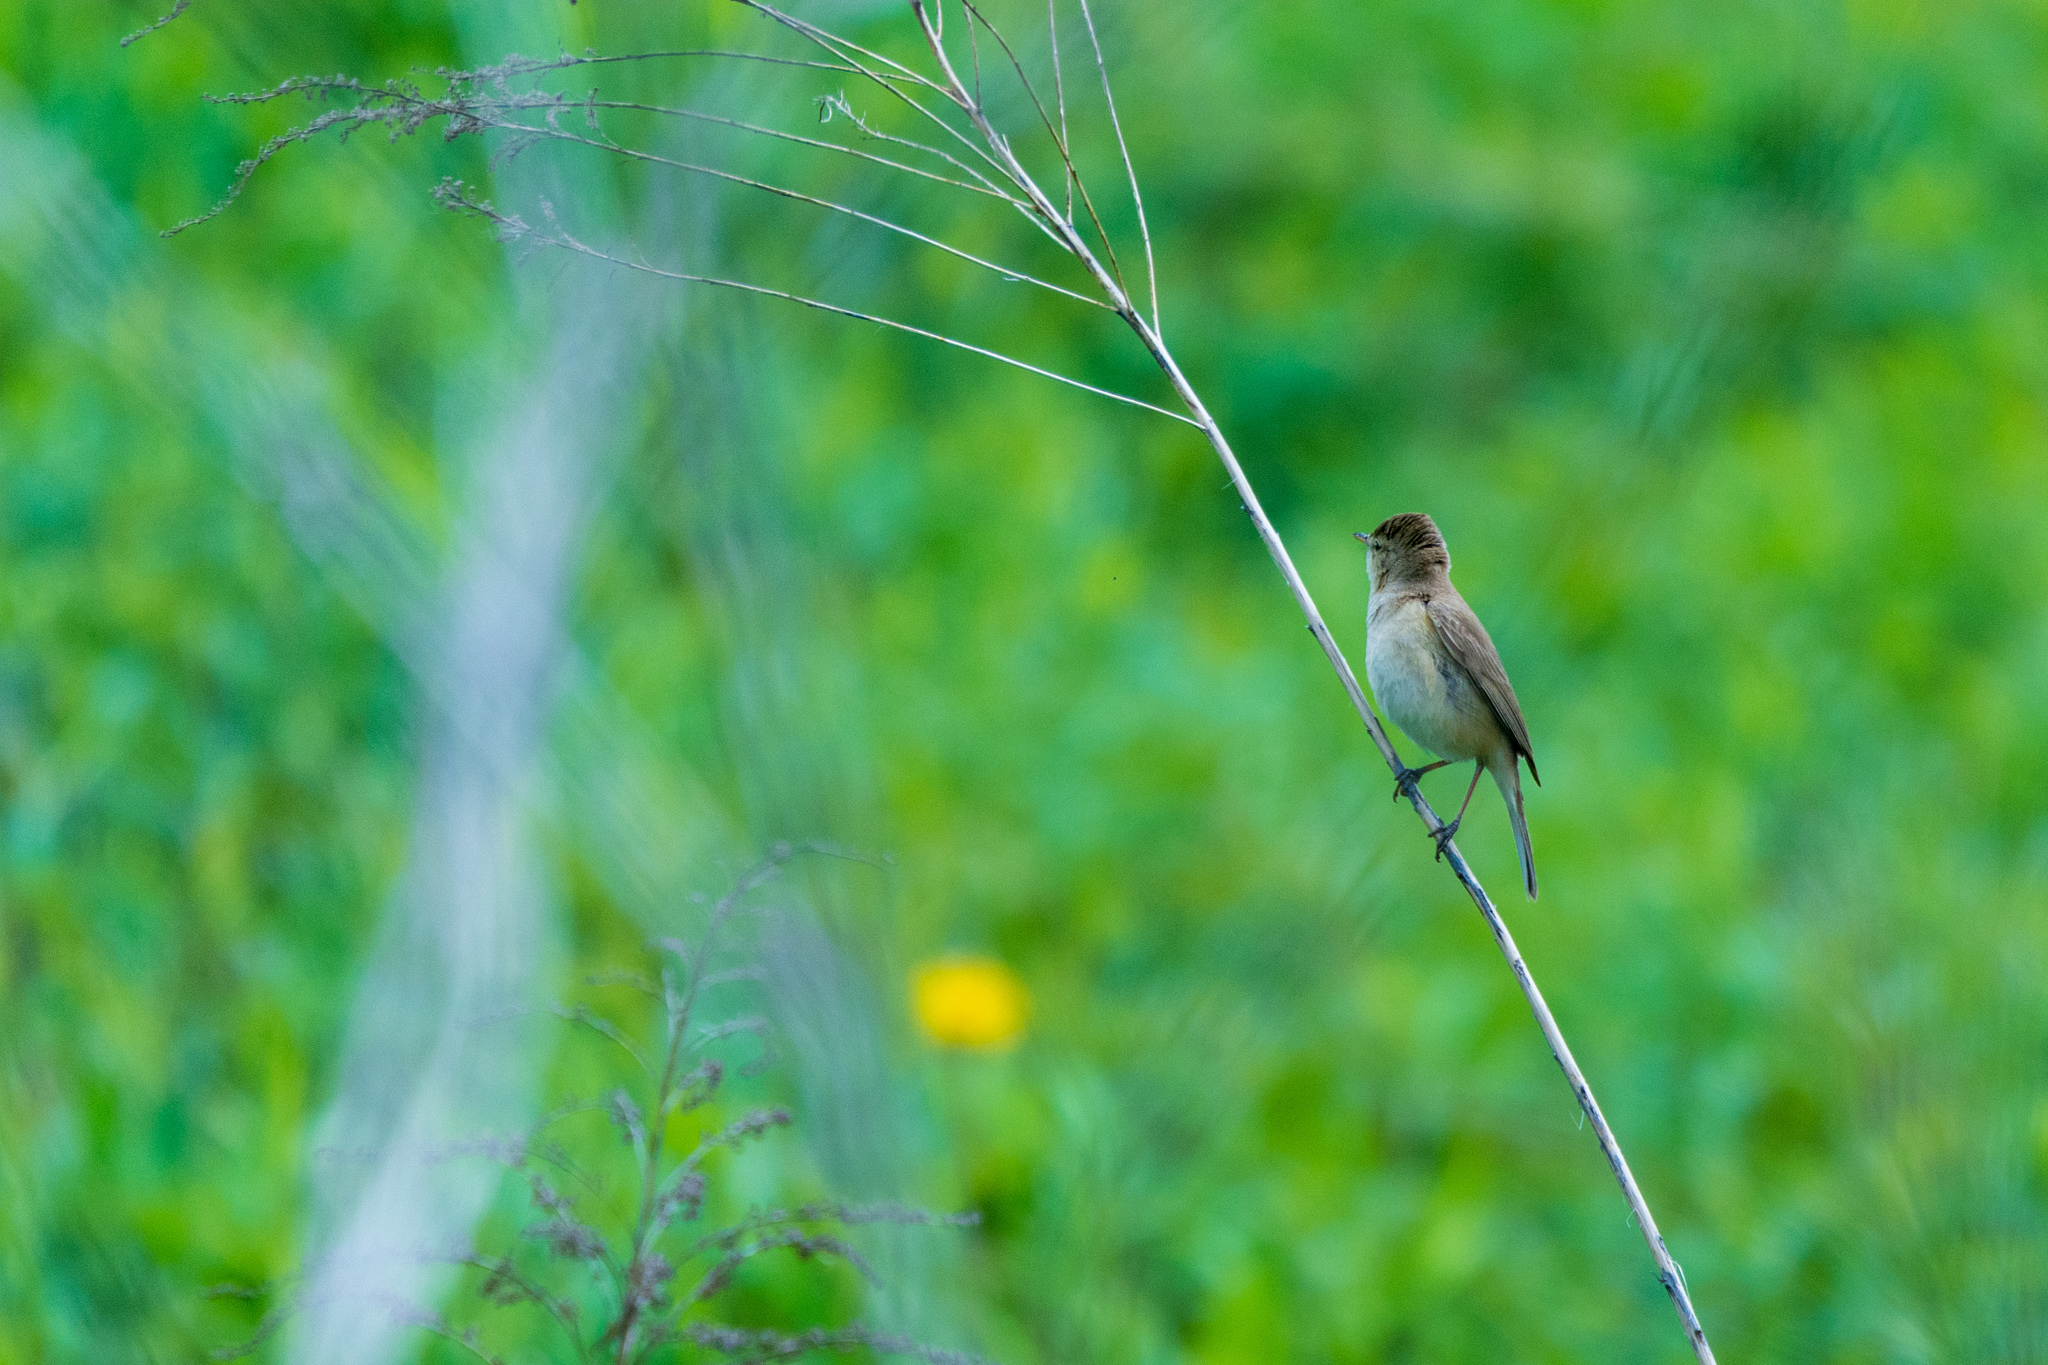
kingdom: Animalia
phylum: Chordata
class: Aves
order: Passeriformes
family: Acrocephalidae
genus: Iduna
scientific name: Iduna caligata
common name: Booted warbler
